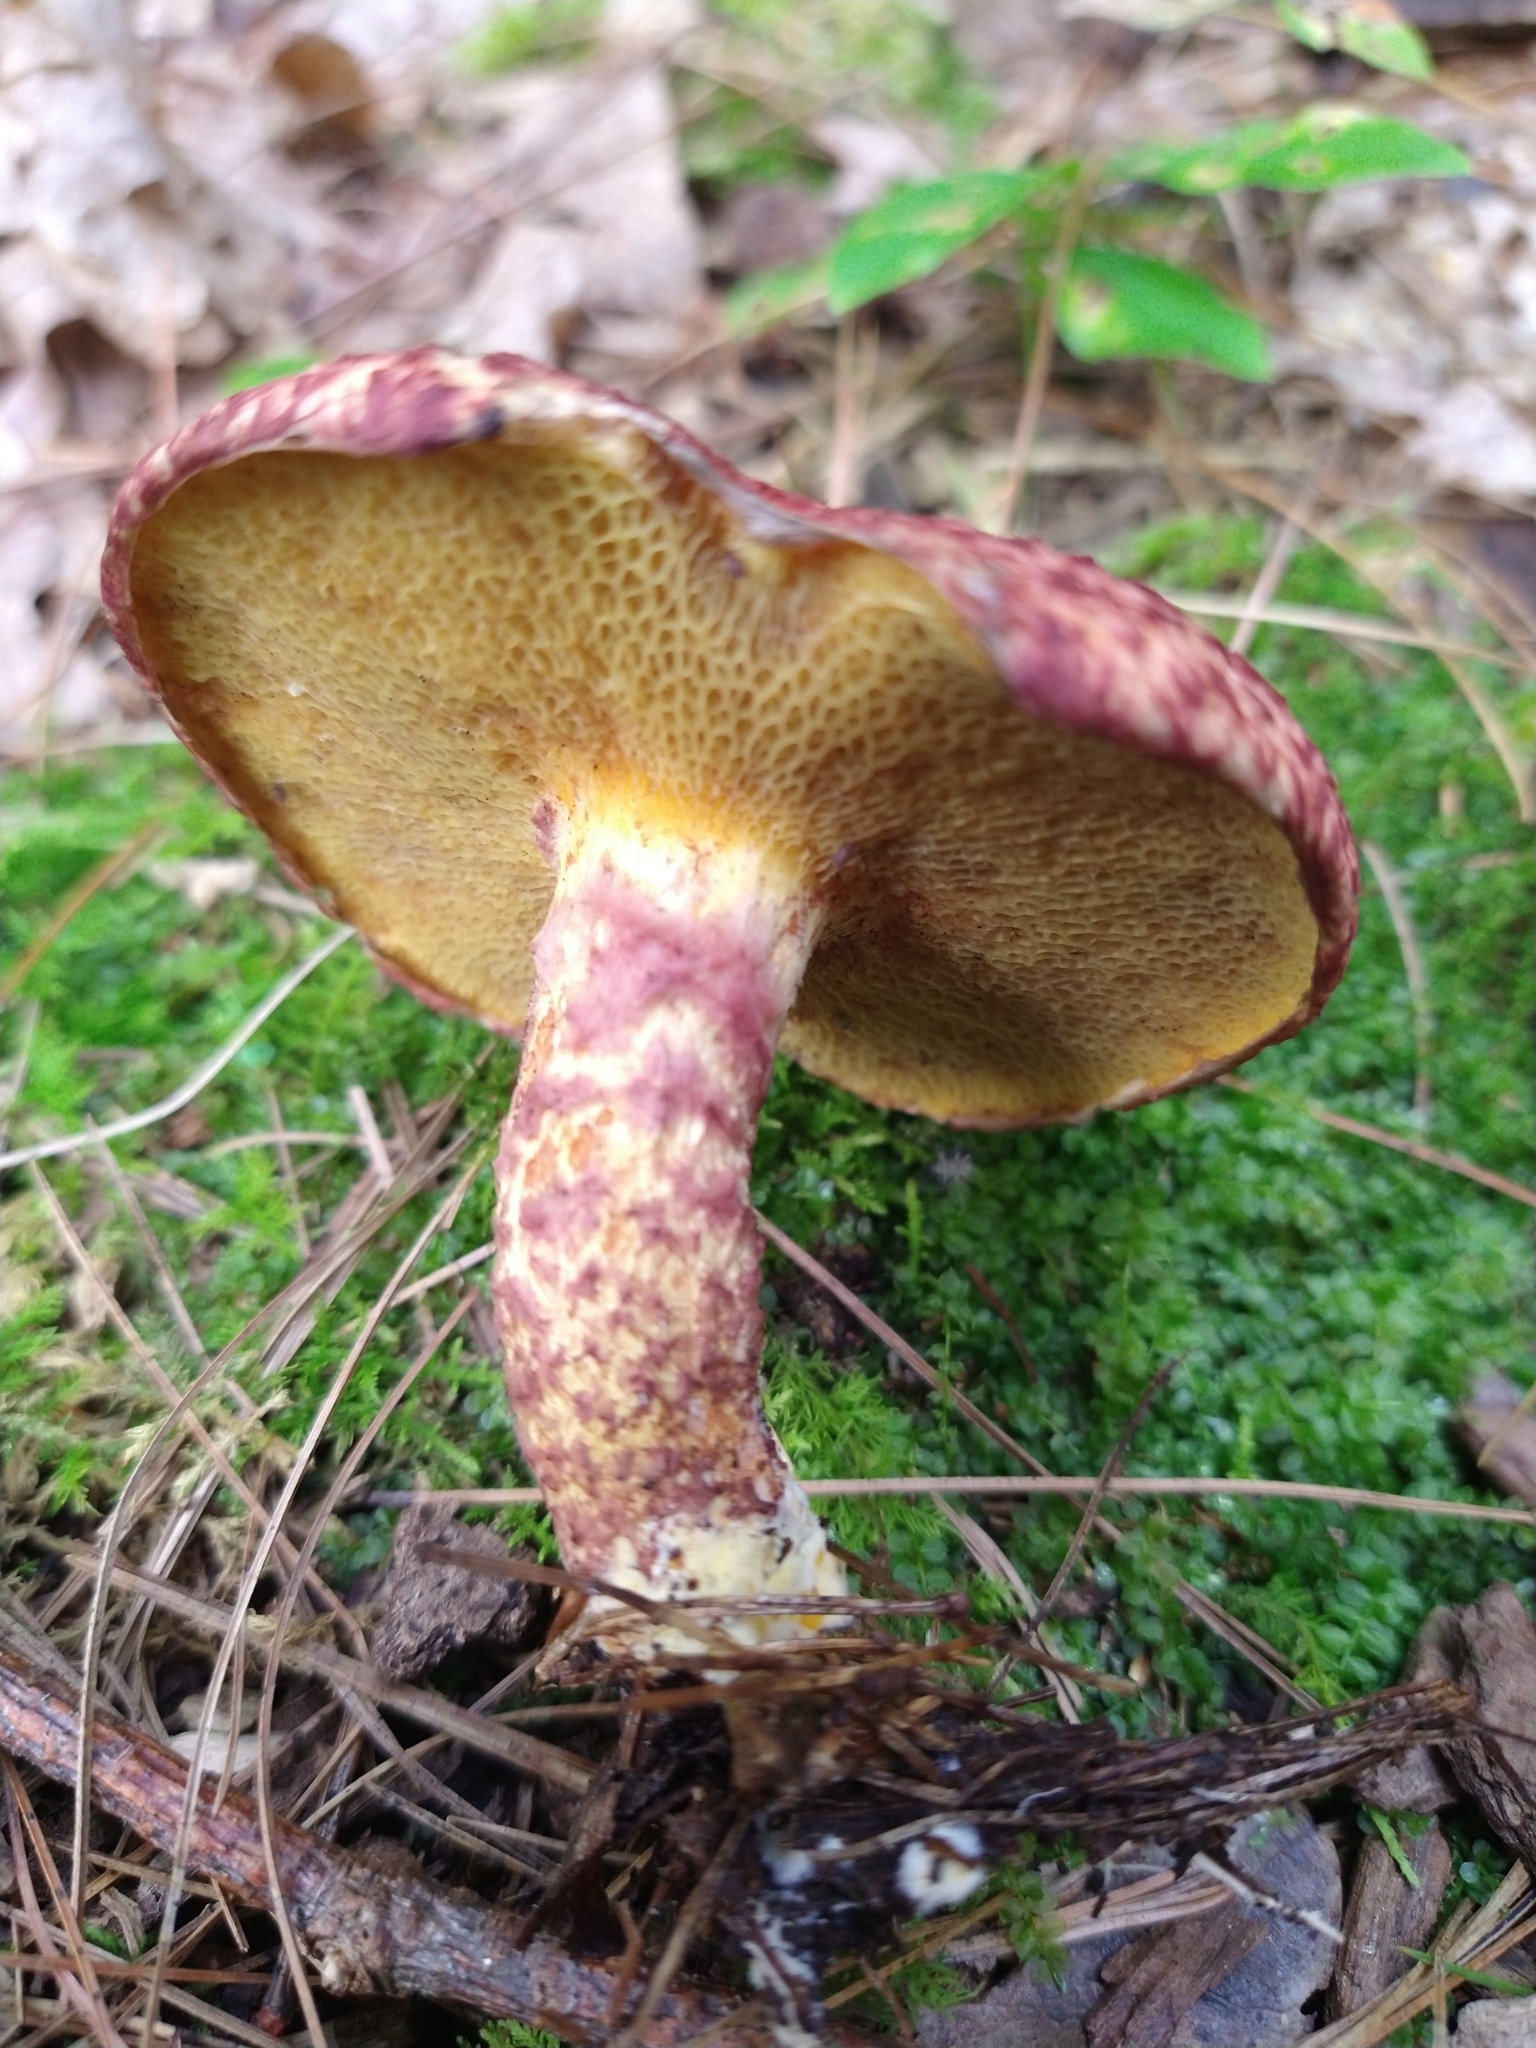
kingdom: Fungi
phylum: Basidiomycota
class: Agaricomycetes
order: Boletales
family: Suillaceae
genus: Suillus
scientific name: Suillus spraguei
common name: Painted suillus
